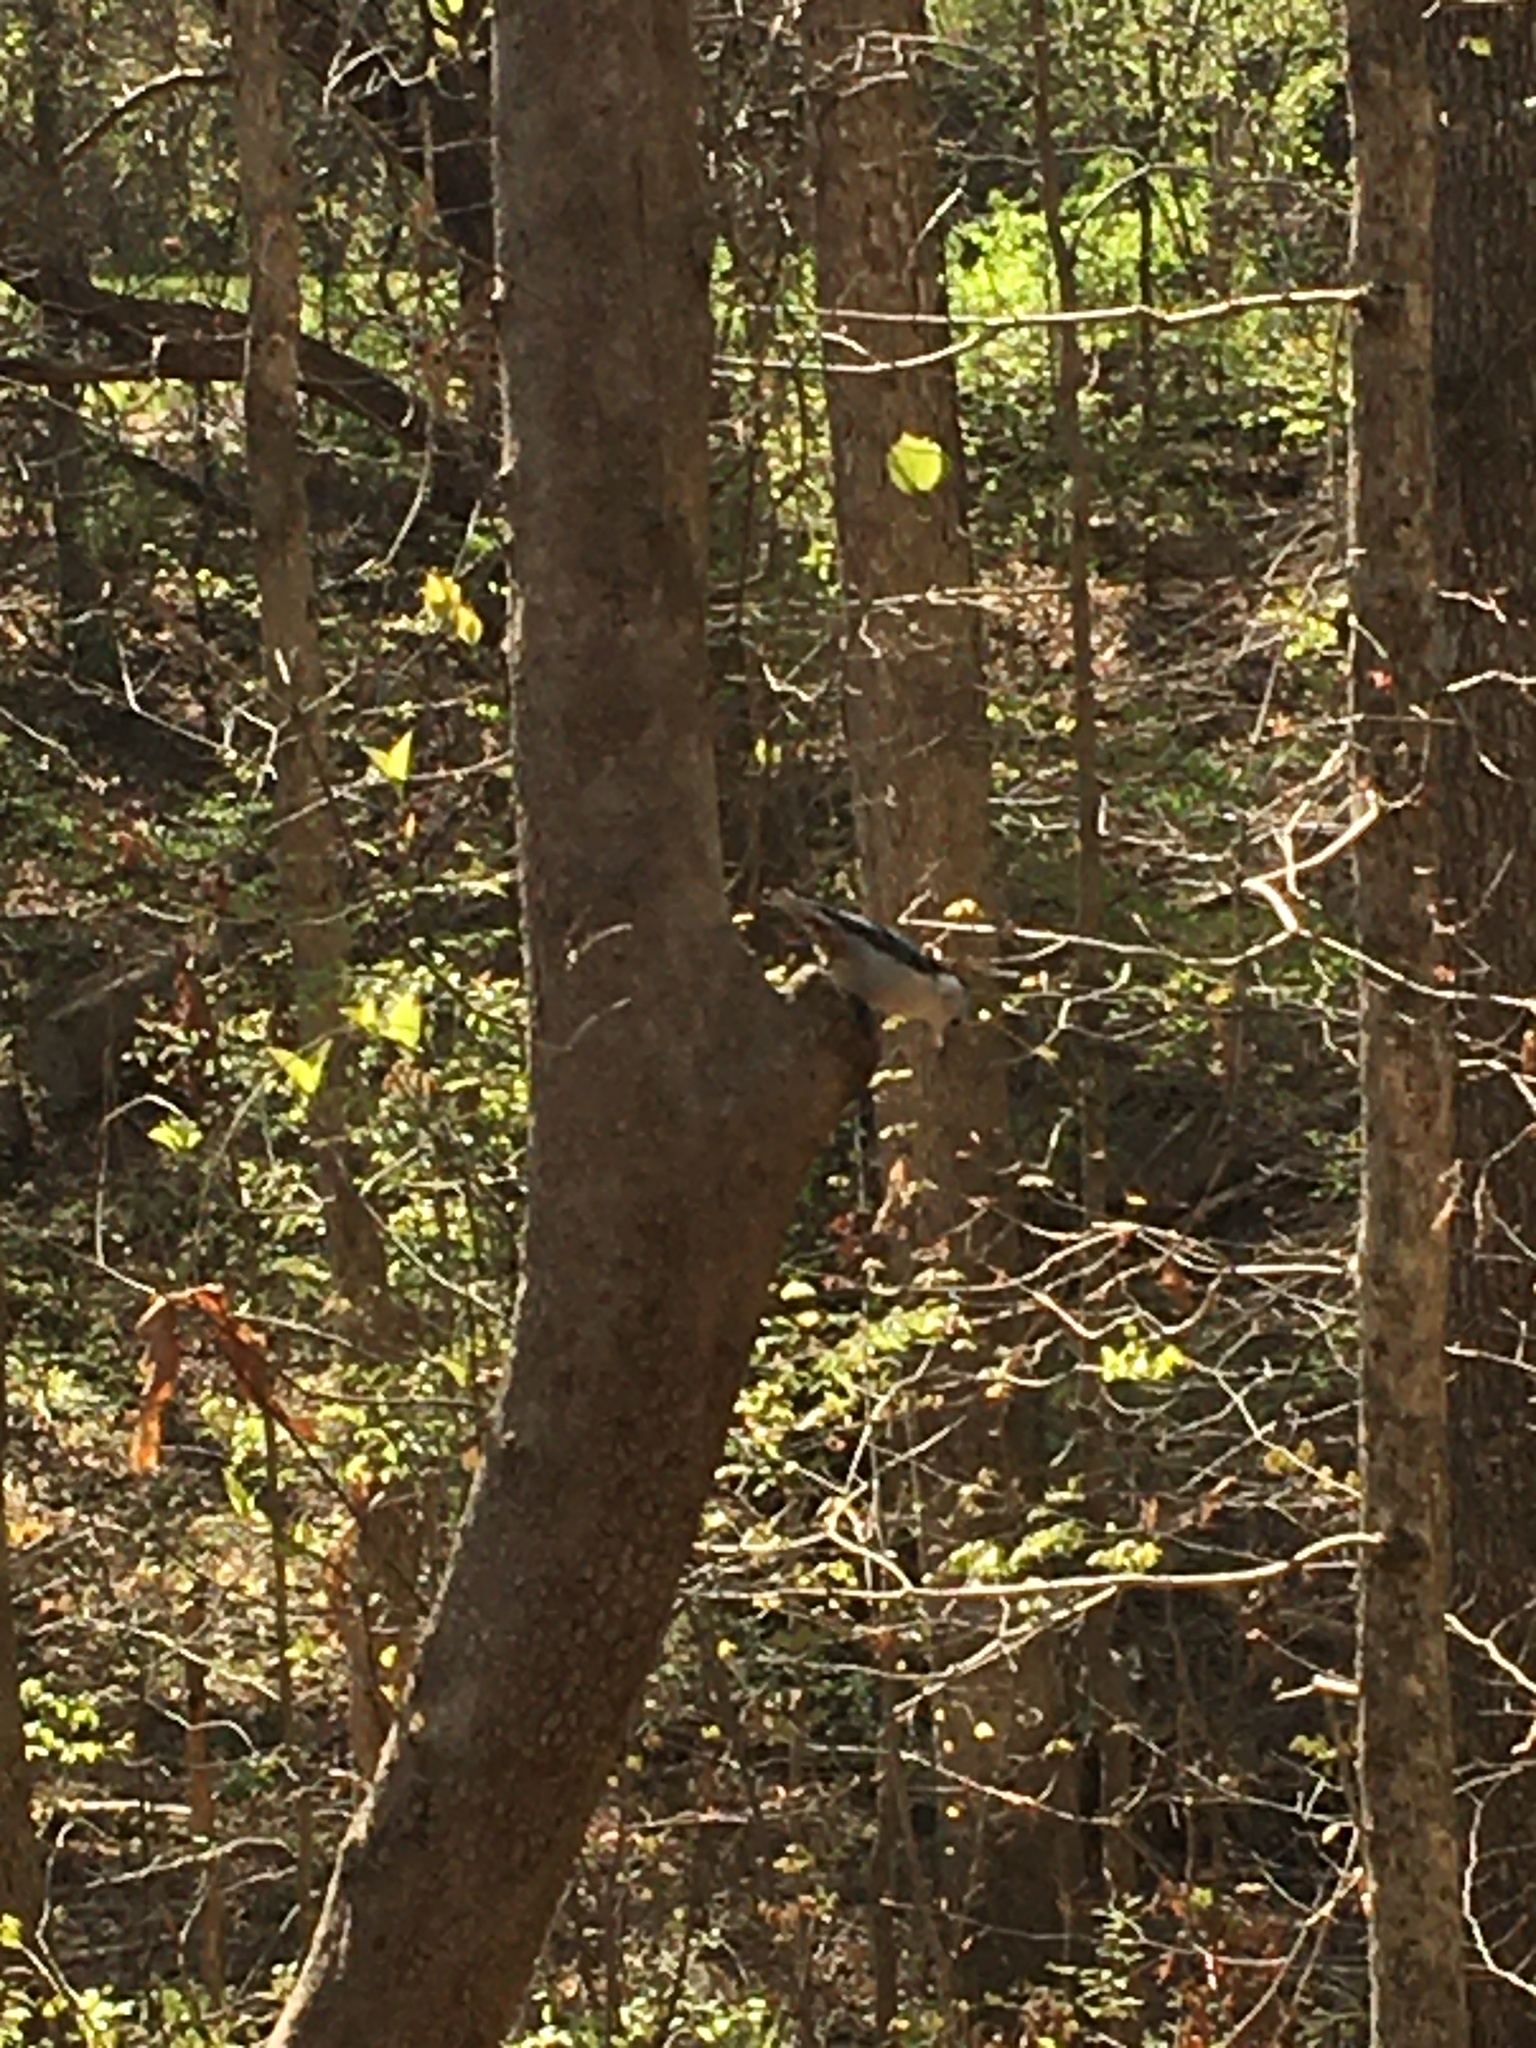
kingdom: Animalia
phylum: Chordata
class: Aves
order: Passeriformes
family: Sittidae
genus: Sitta
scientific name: Sitta carolinensis
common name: White-breasted nuthatch
